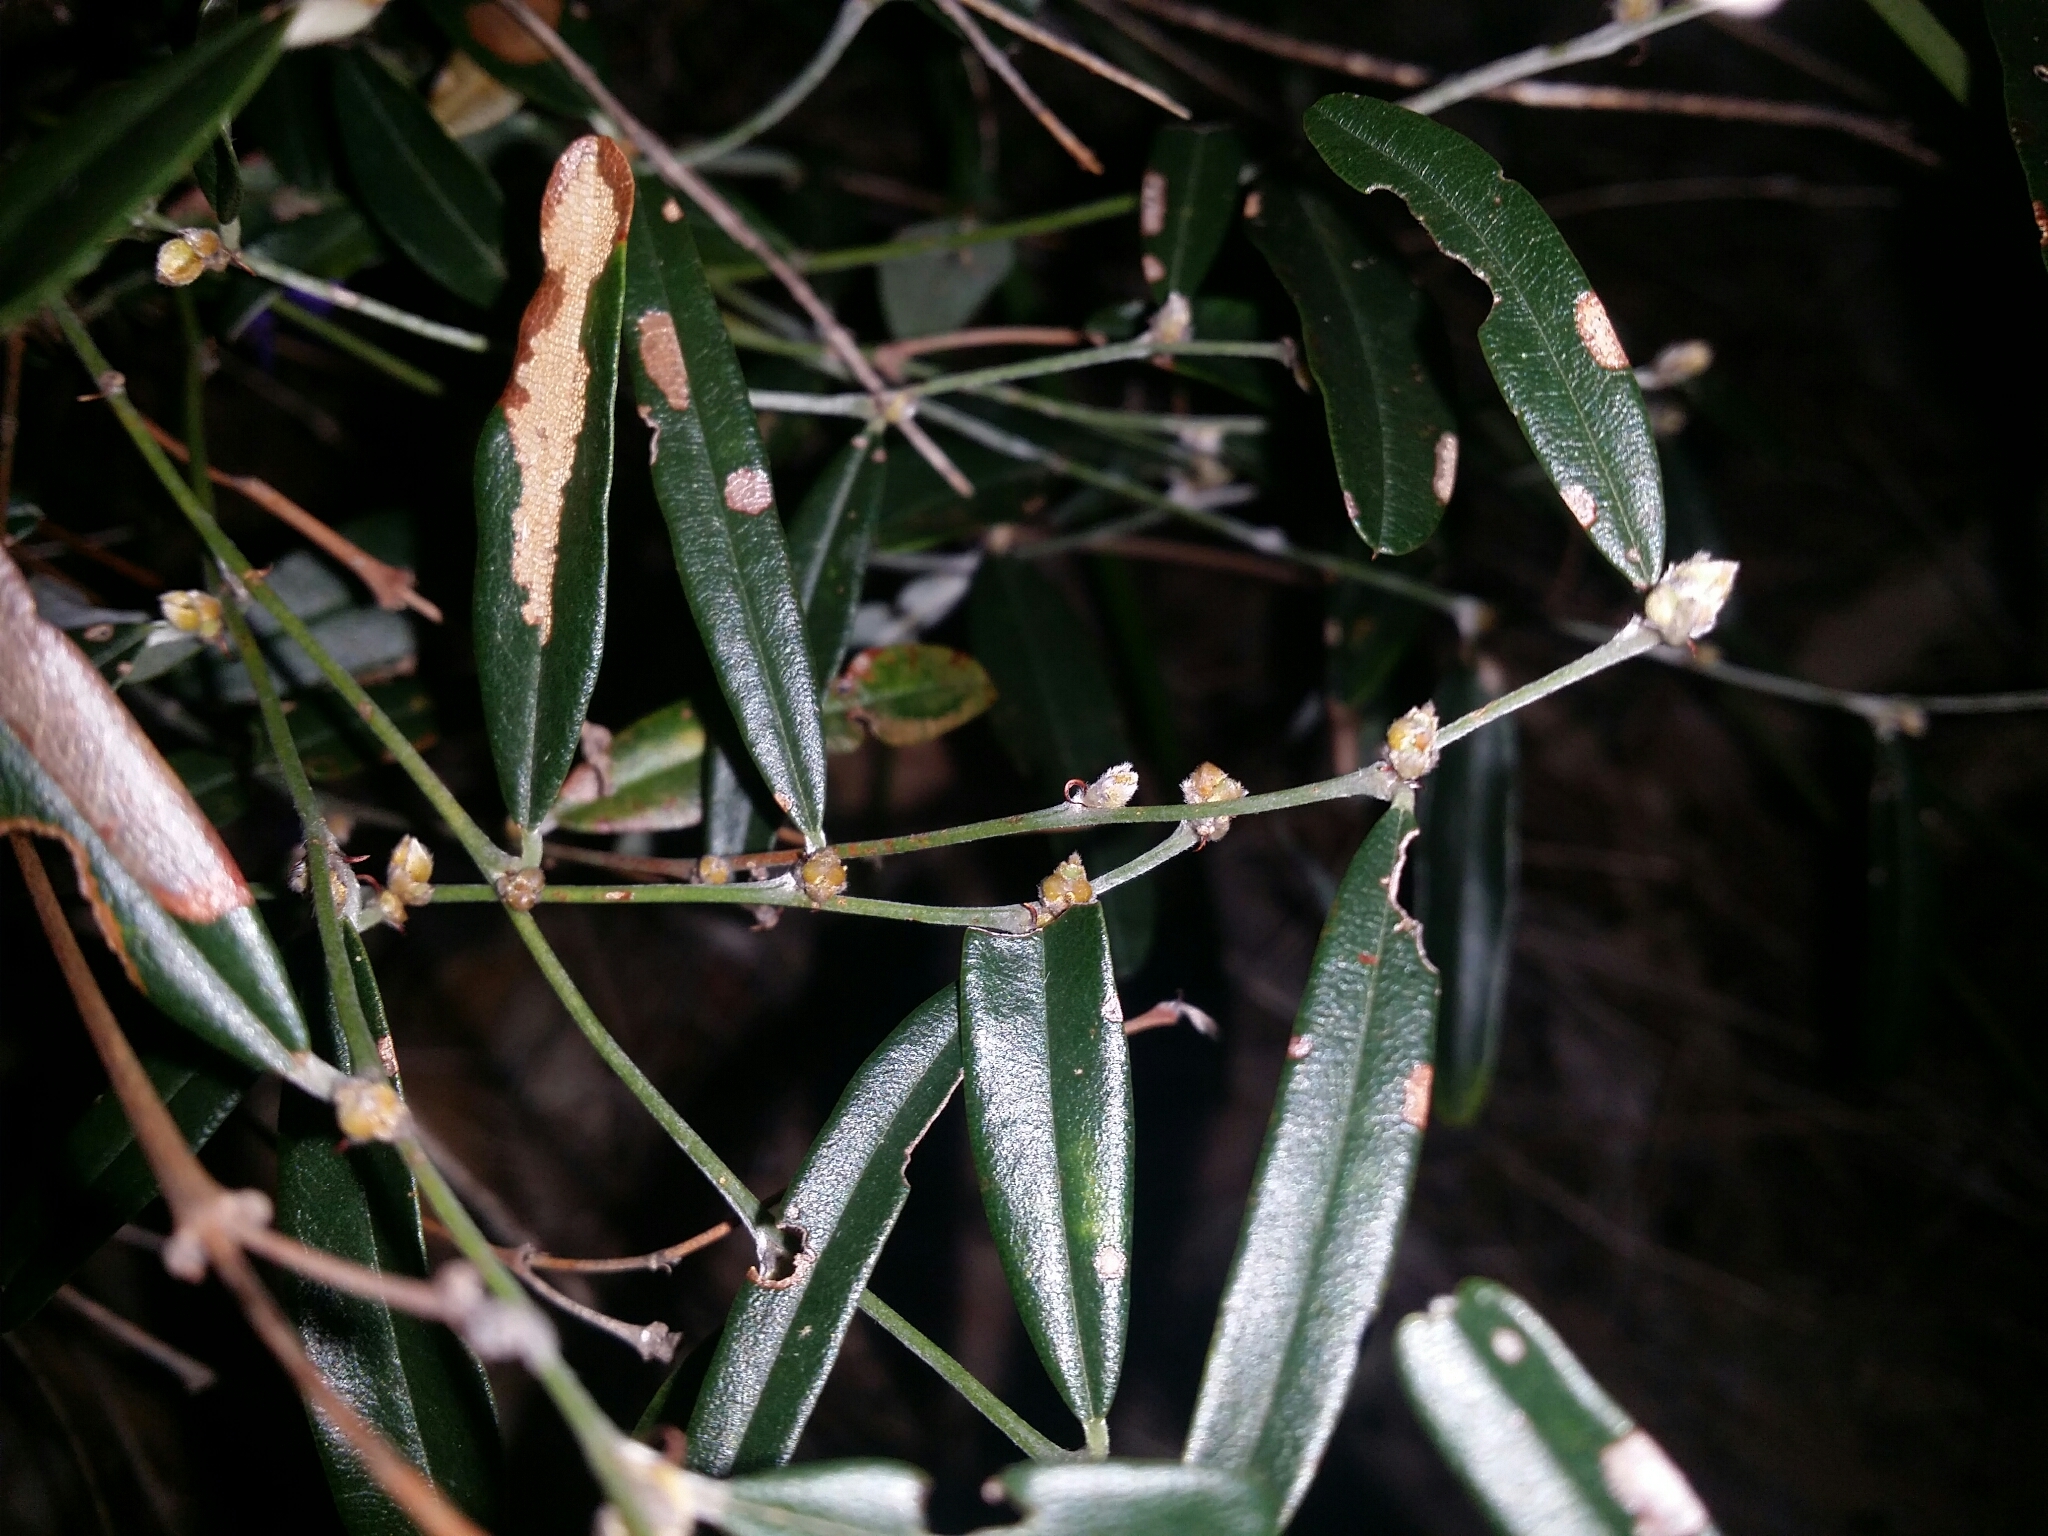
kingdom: Plantae
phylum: Tracheophyta
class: Magnoliopsida
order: Fabales
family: Fabaceae
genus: Hovea
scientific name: Hovea trisperma
